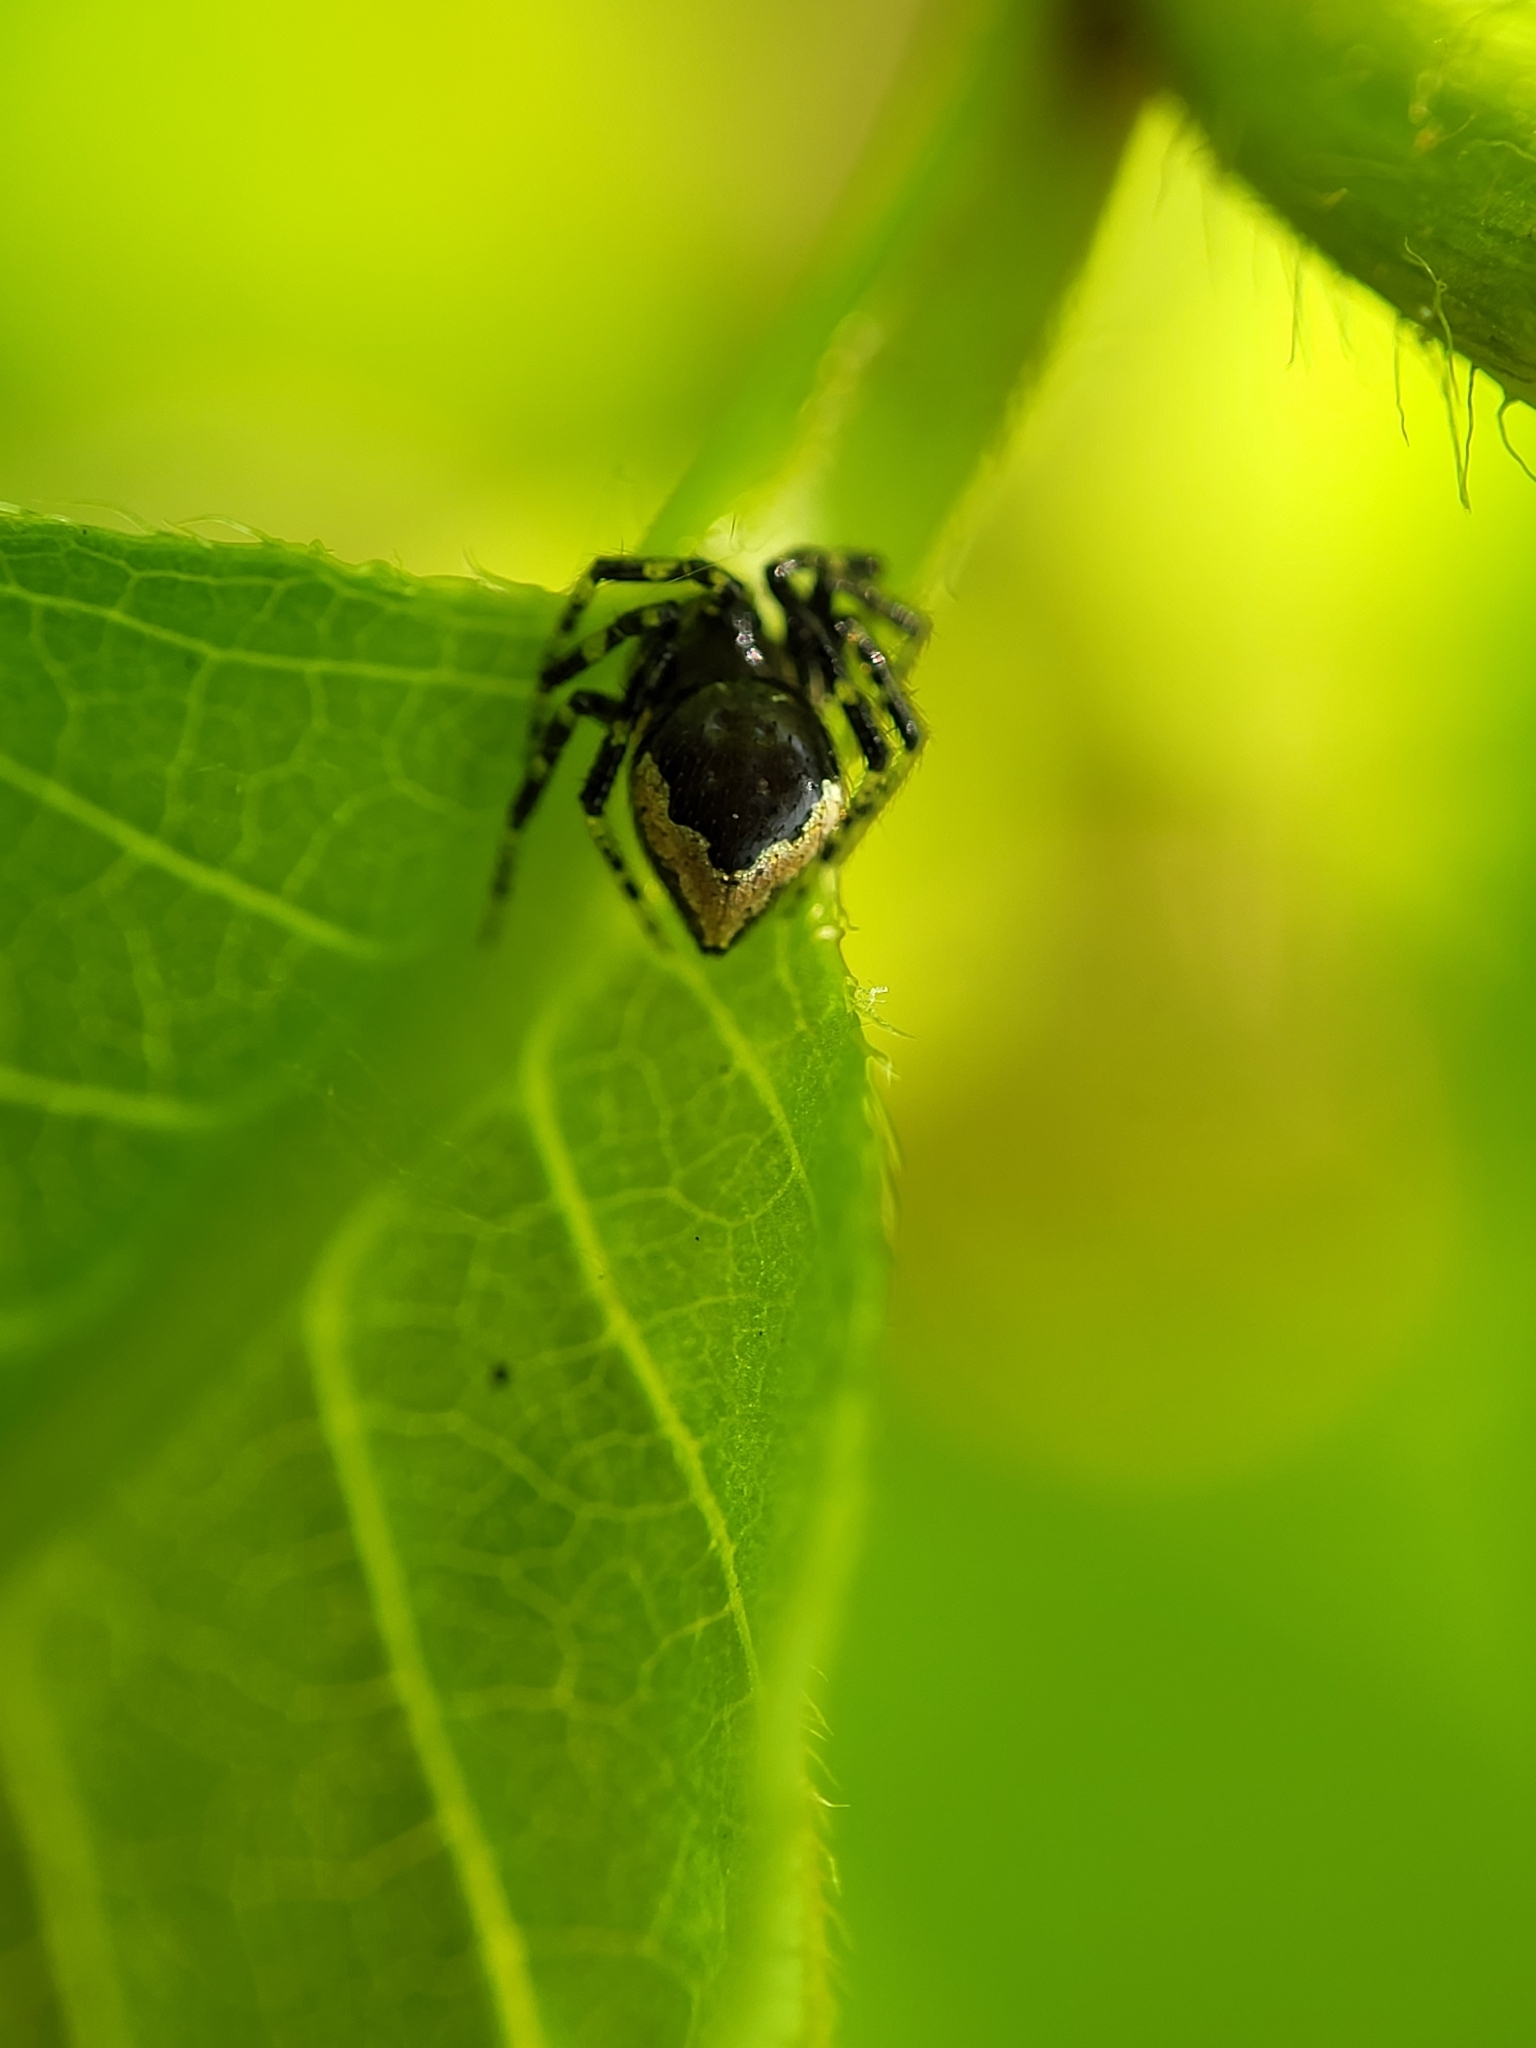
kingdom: Animalia
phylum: Arthropoda
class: Arachnida
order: Araneae
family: Theridiidae
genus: Euryopis
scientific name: Euryopis funebris
